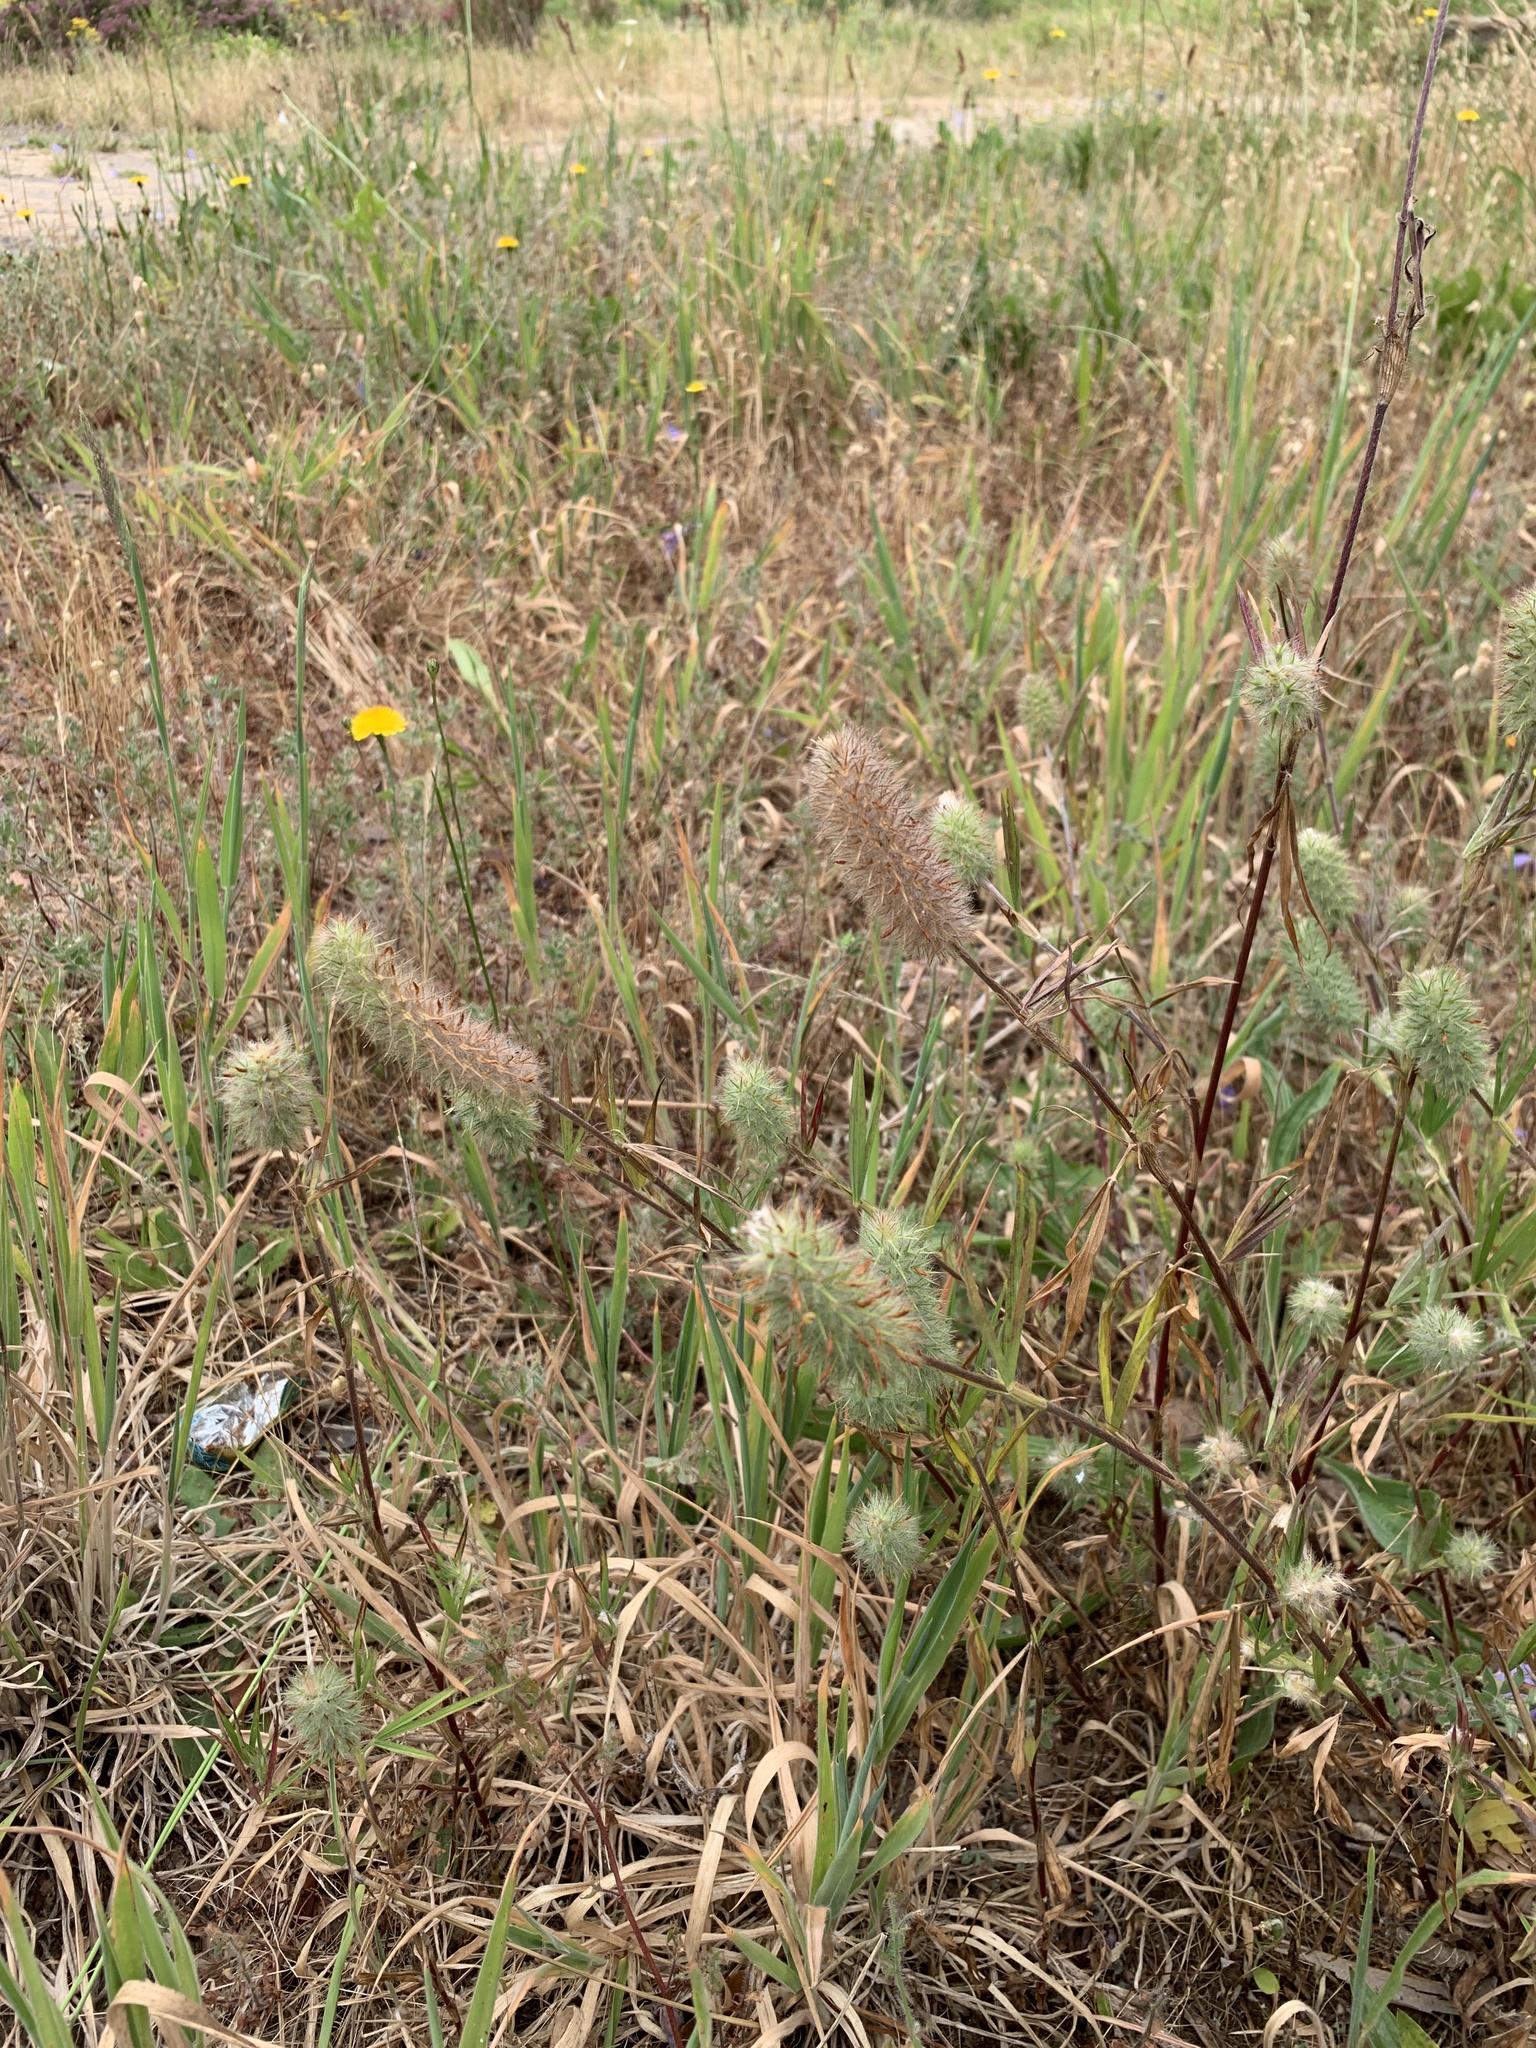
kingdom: Plantae
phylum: Tracheophyta
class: Magnoliopsida
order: Fabales
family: Fabaceae
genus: Trifolium
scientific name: Trifolium angustifolium
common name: Narrow clover
